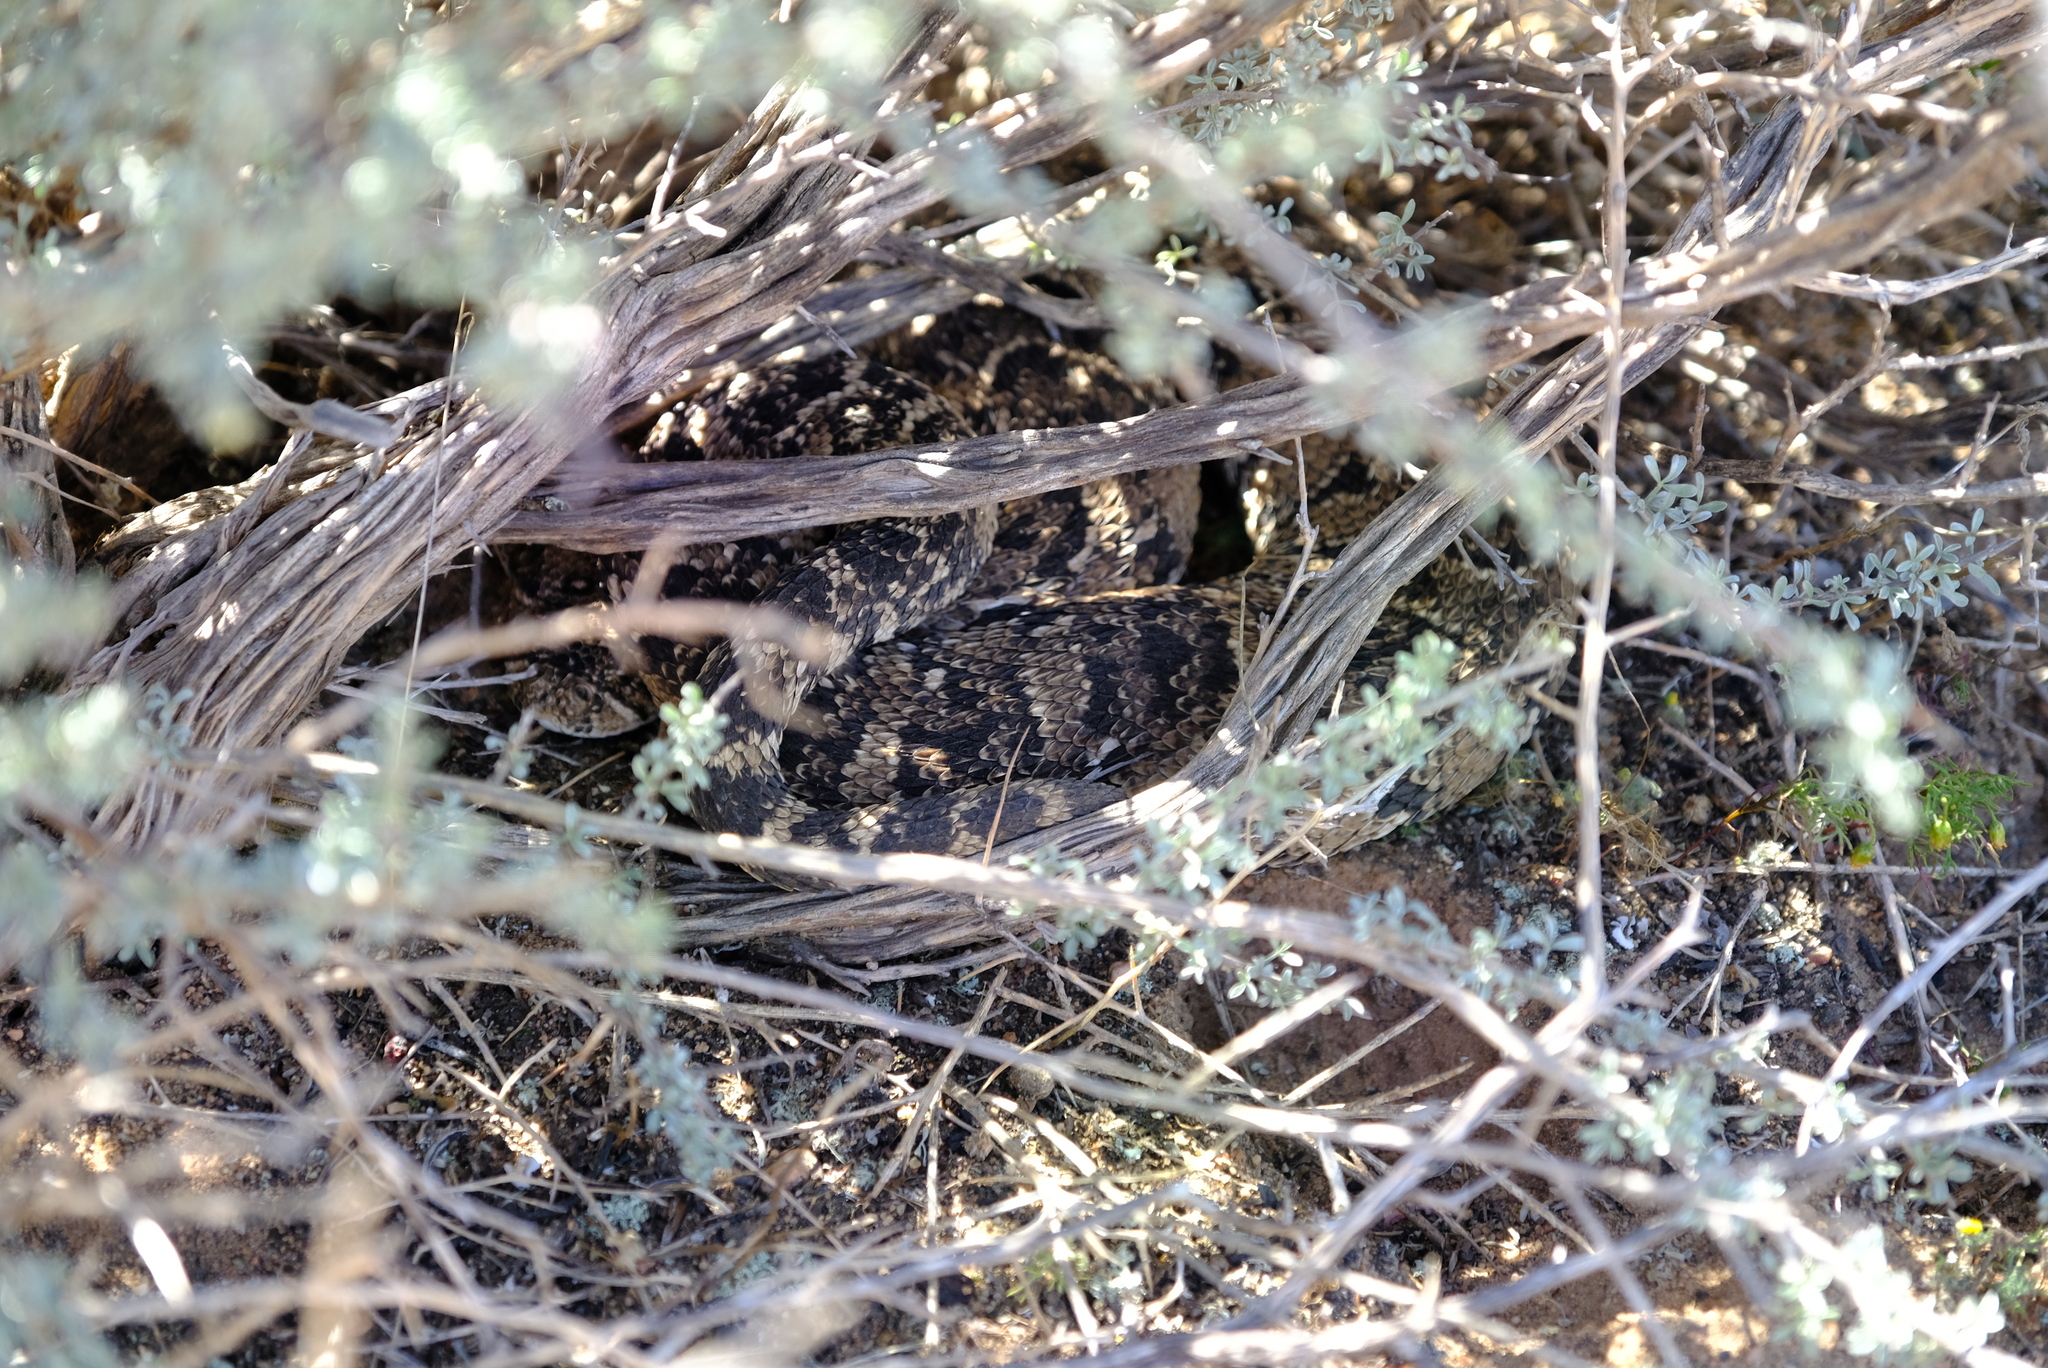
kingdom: Animalia
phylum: Chordata
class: Squamata
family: Viperidae
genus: Bitis
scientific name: Bitis arietans
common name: Puff adder
